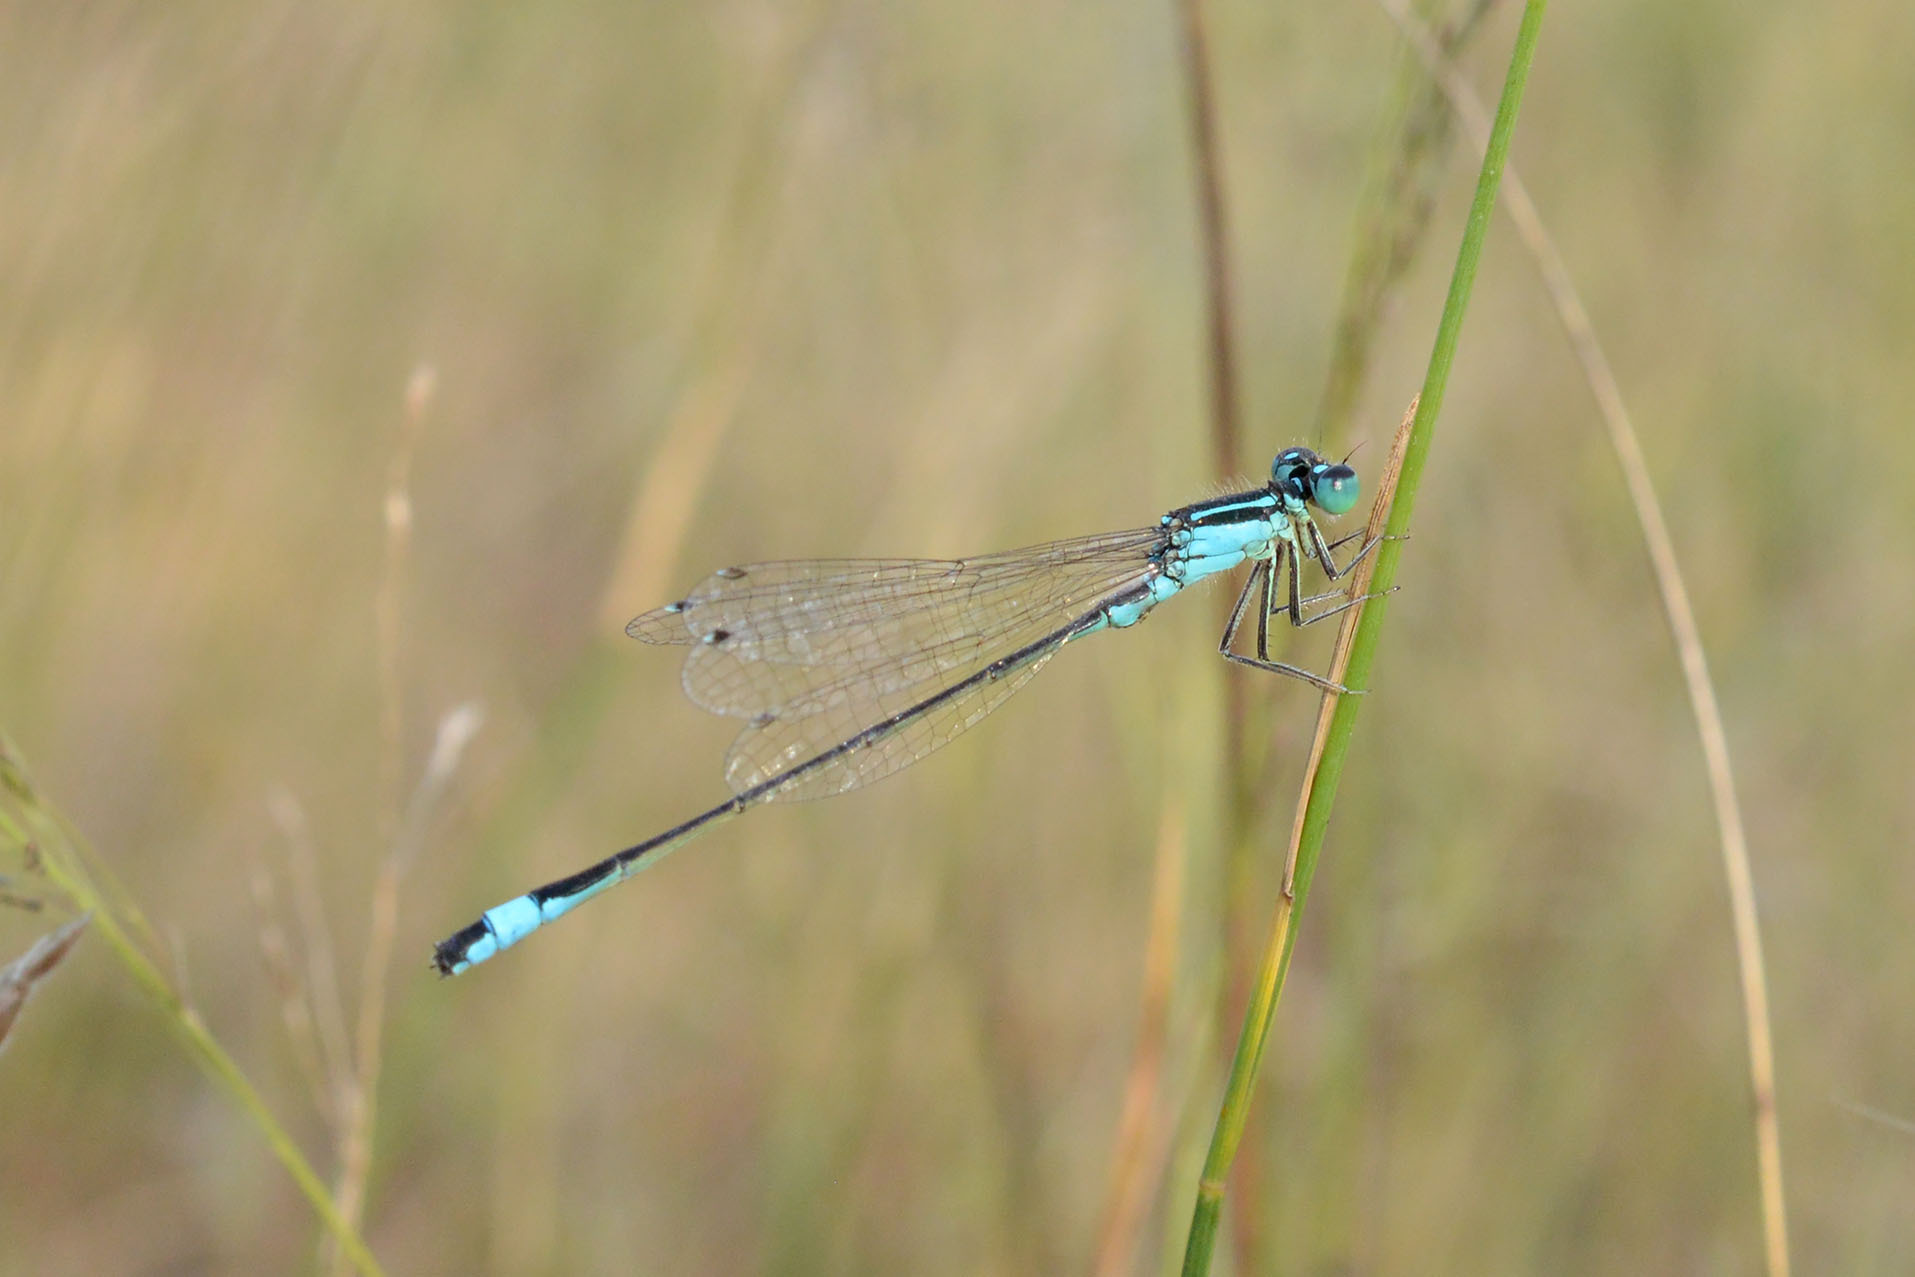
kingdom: Animalia
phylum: Arthropoda
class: Insecta
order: Odonata
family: Coenagrionidae
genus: Ischnura
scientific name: Ischnura elegans
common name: Blue-tailed damselfly
